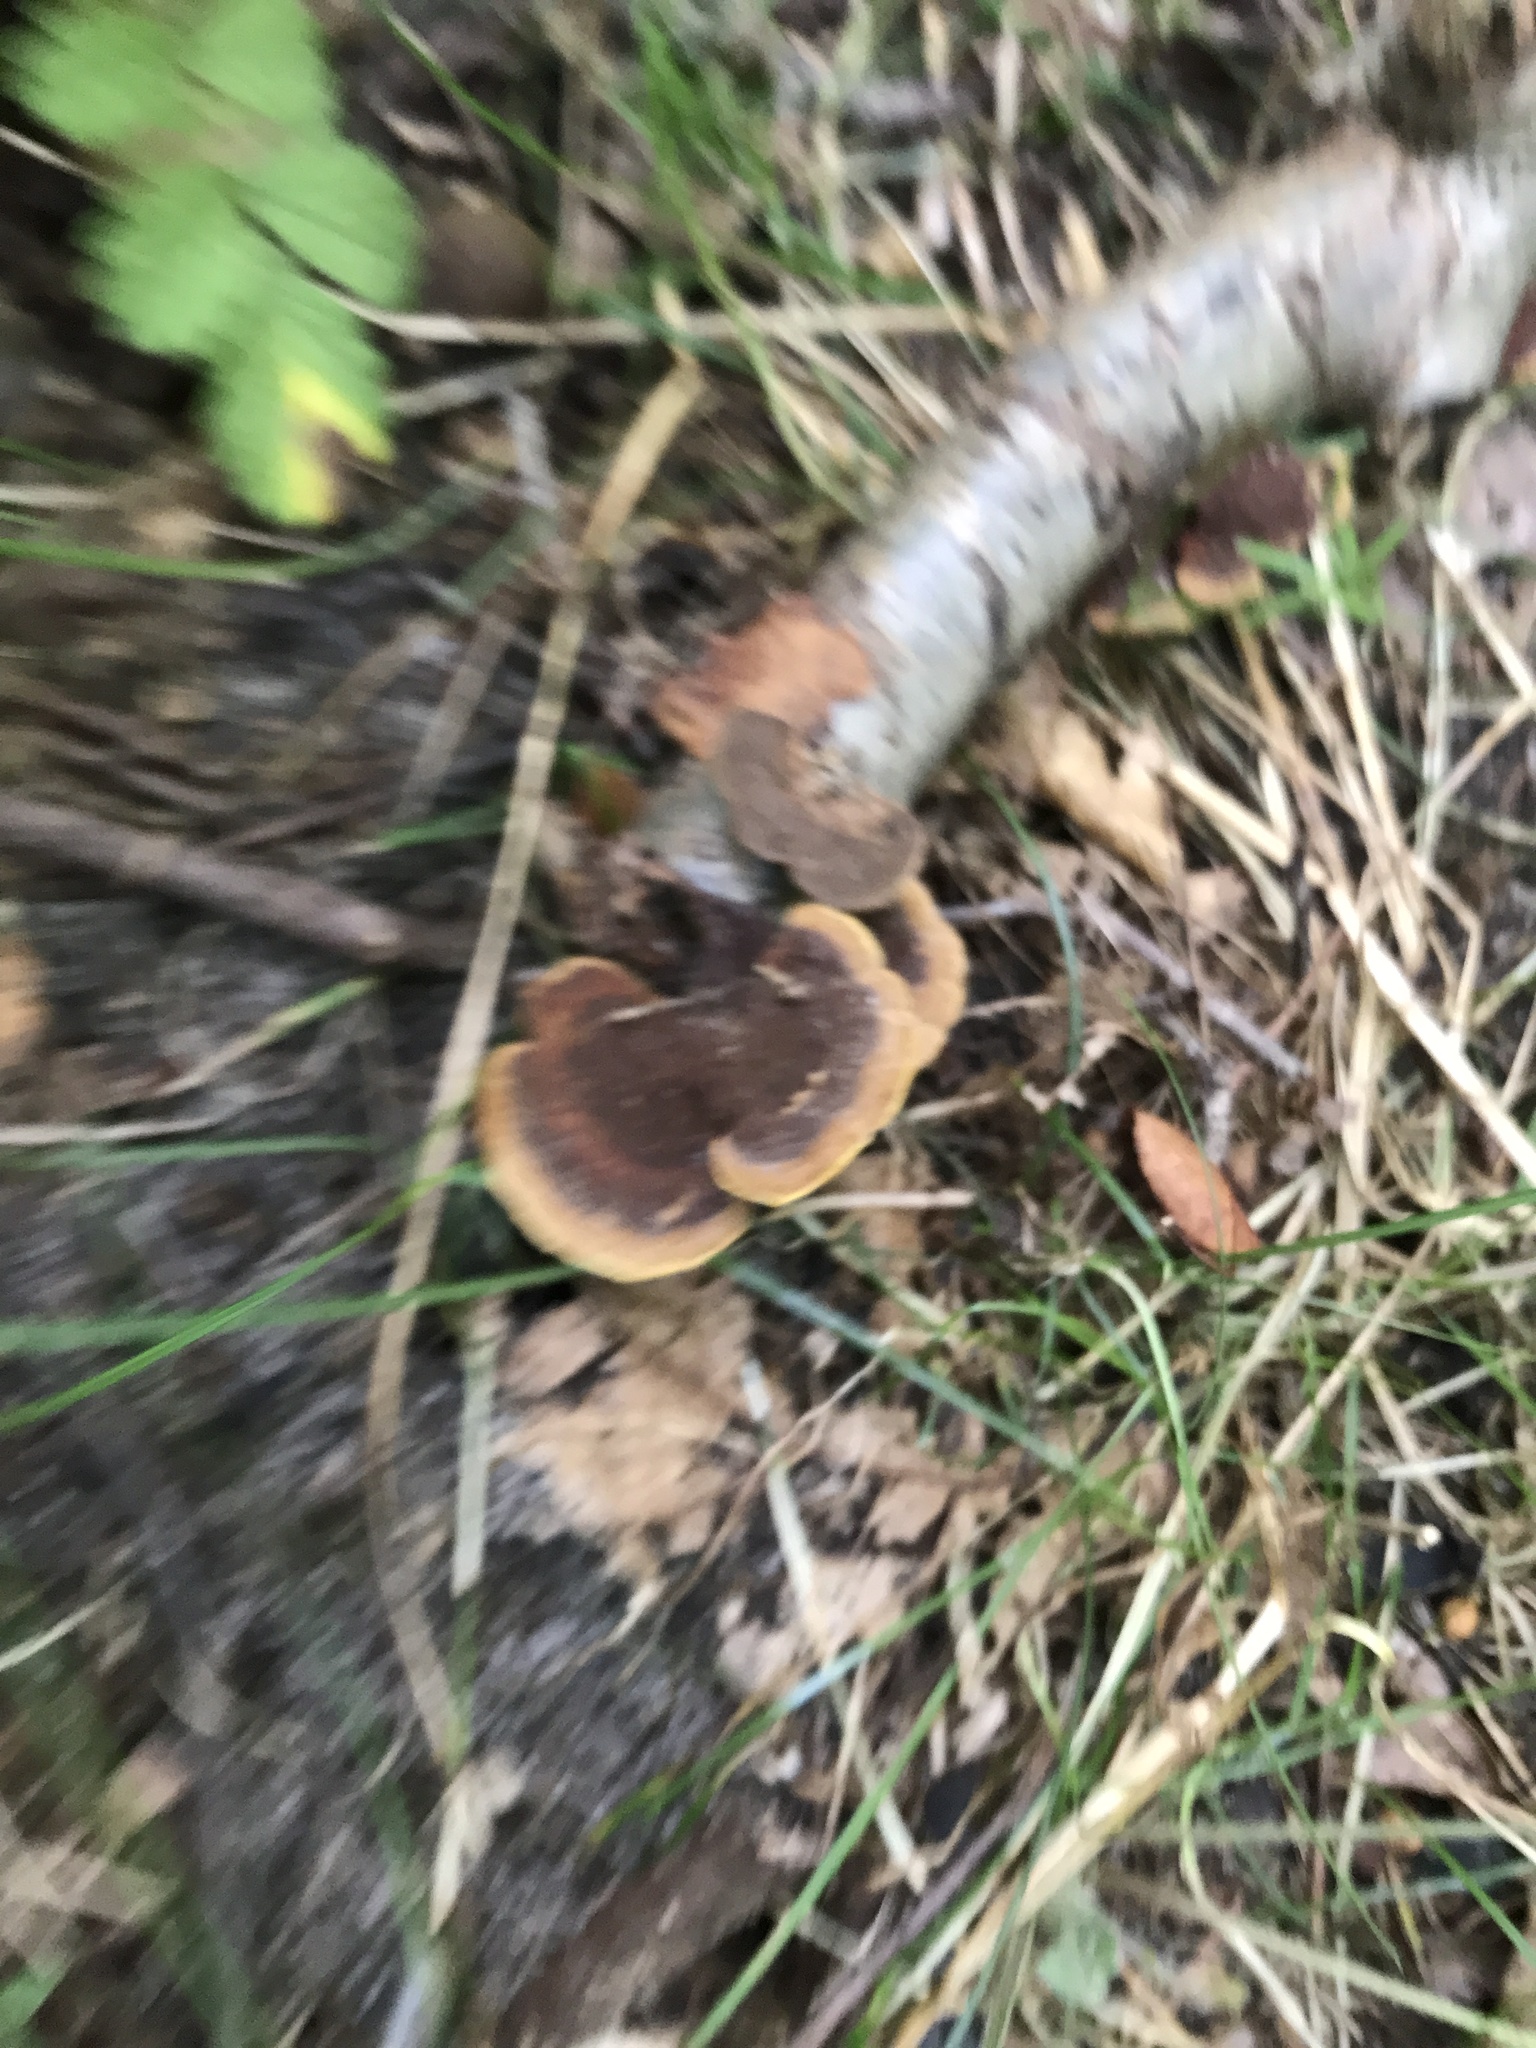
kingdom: Fungi
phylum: Basidiomycota
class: Agaricomycetes
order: Hymenochaetales
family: Hymenochaetaceae
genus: Phellinus
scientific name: Phellinus gilvus
